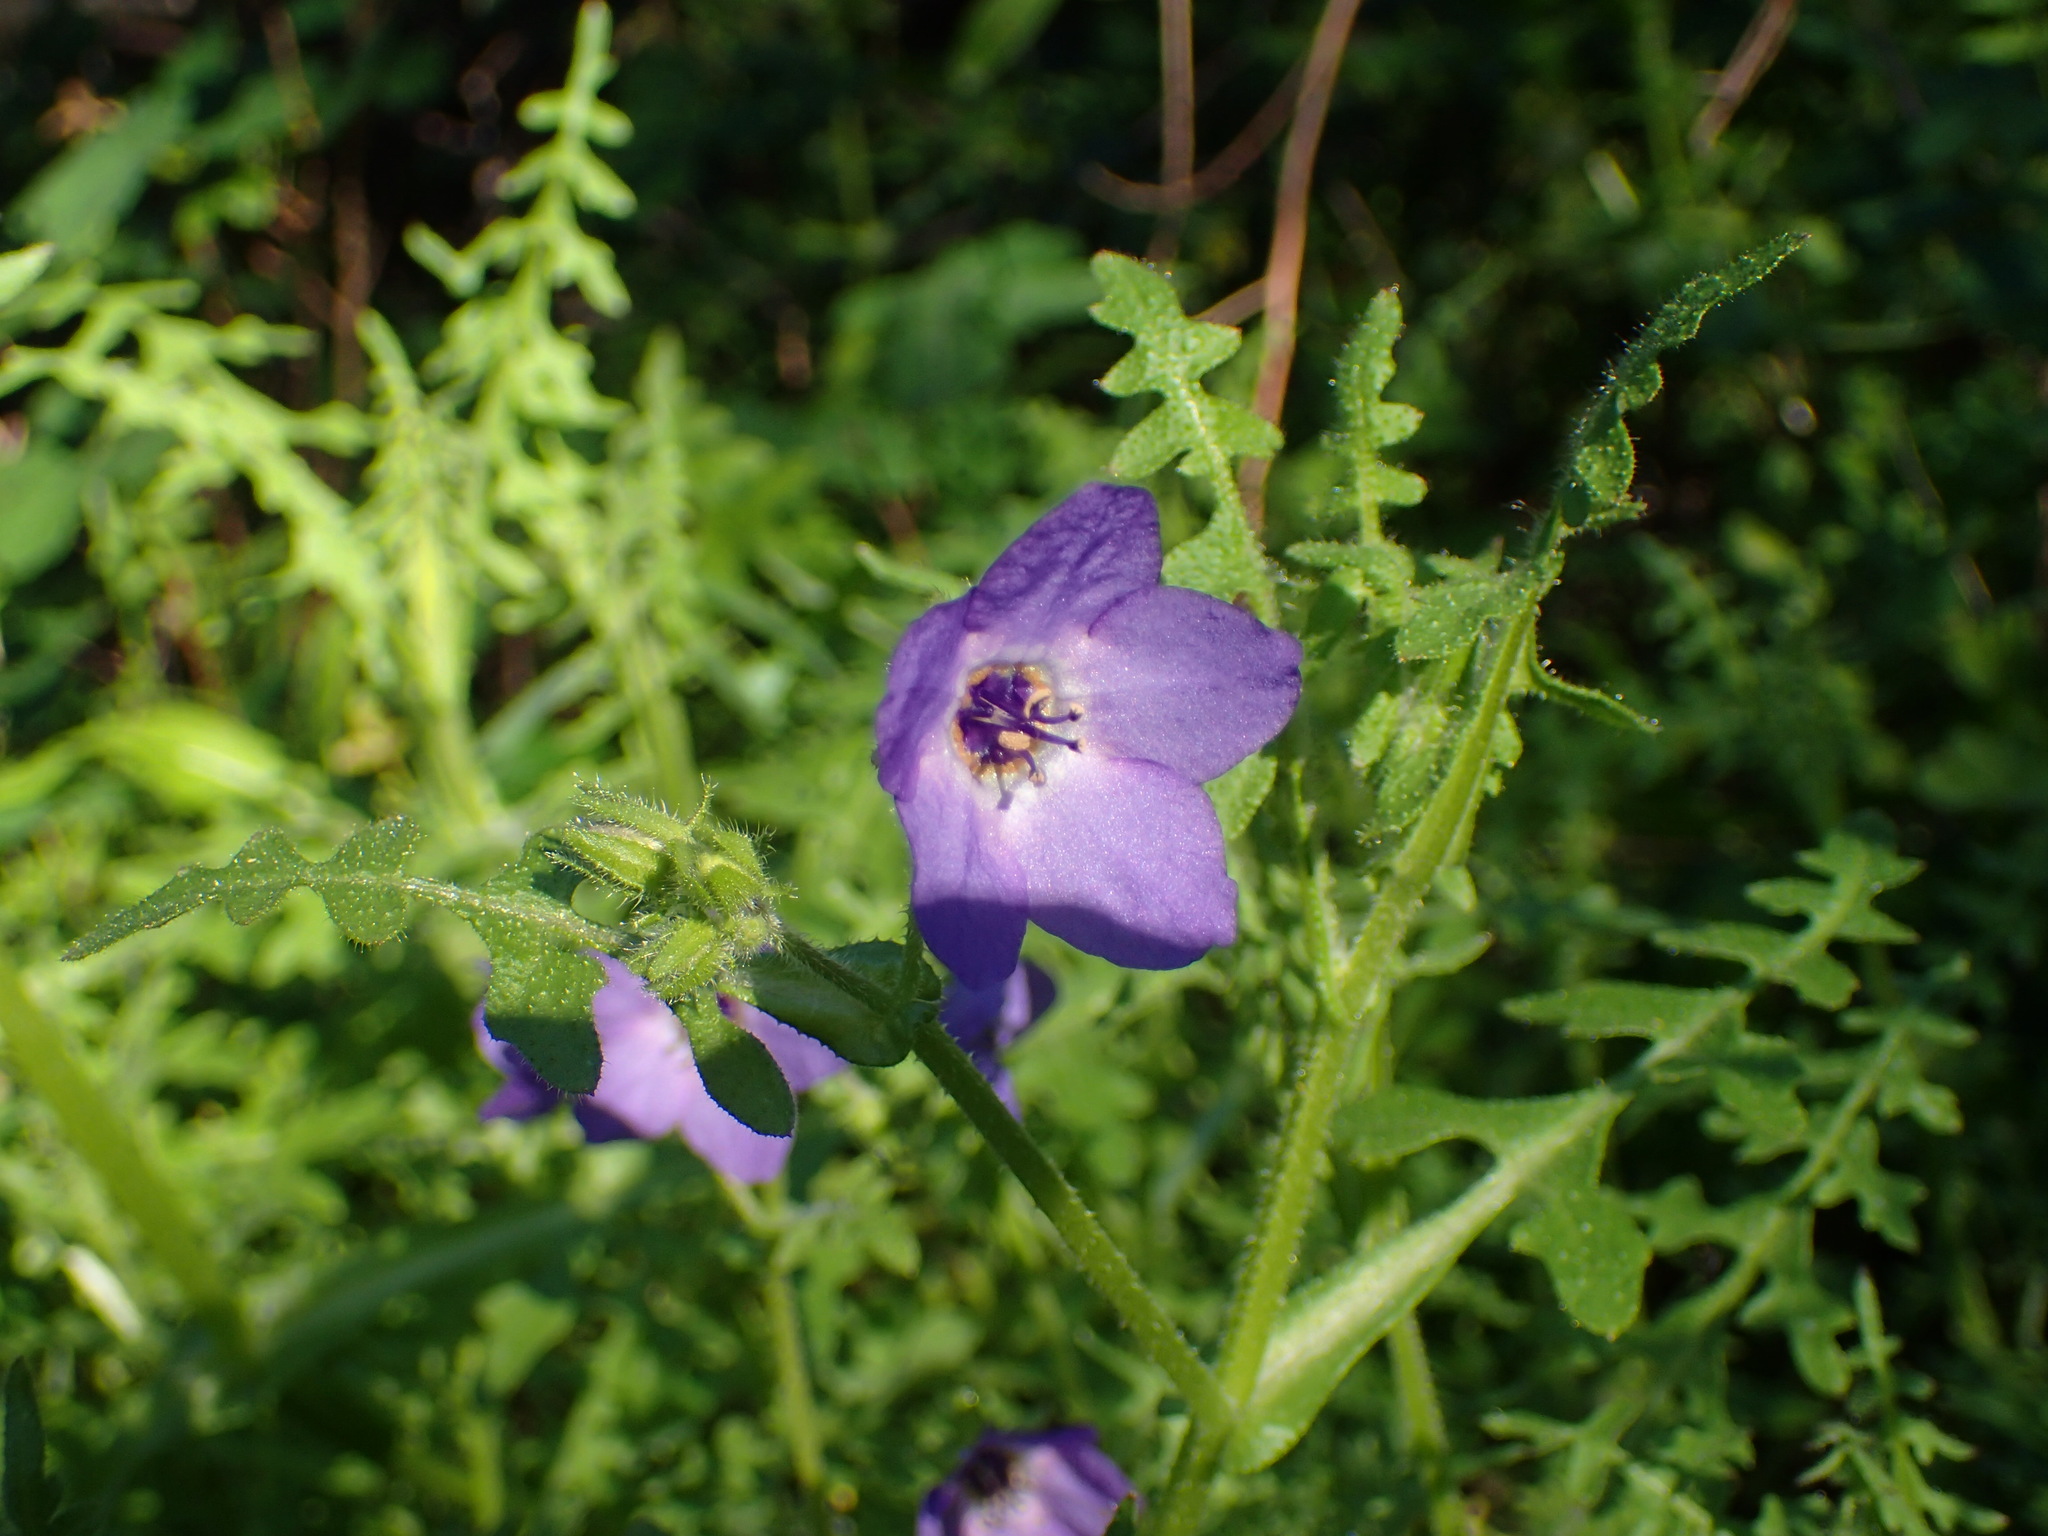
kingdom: Plantae
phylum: Tracheophyta
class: Magnoliopsida
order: Boraginales
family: Hydrophyllaceae
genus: Pholistoma
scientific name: Pholistoma auritum
